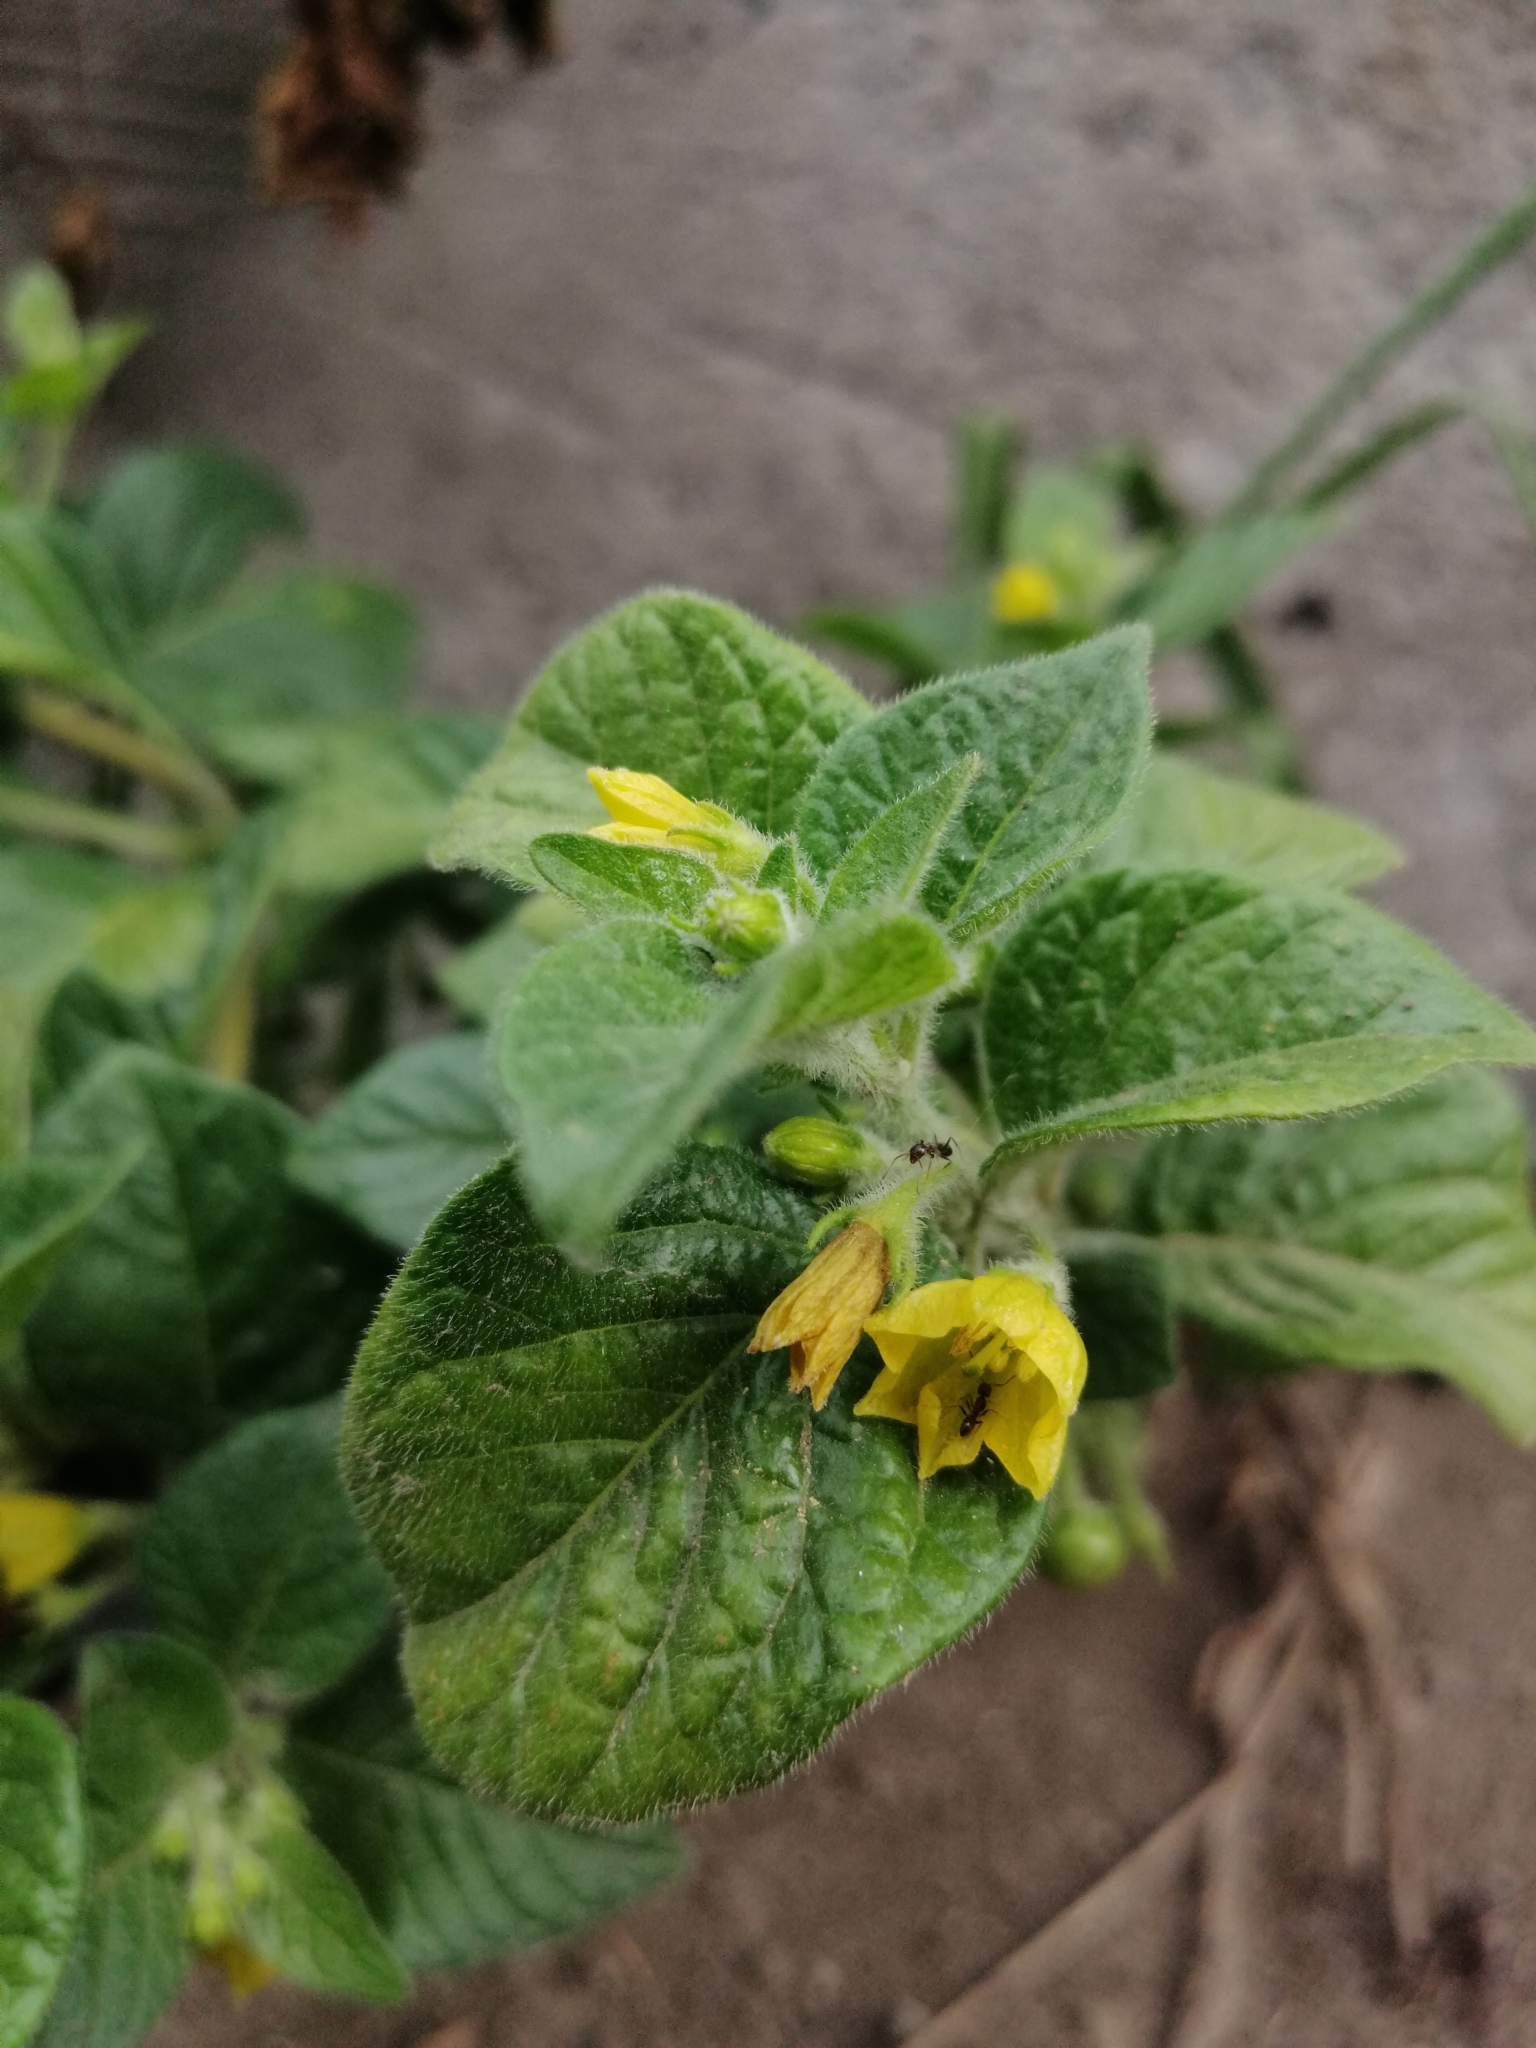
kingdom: Plantae
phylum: Tracheophyta
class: Magnoliopsida
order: Solanales
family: Solanaceae
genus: Capsicum
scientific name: Capsicum rhomboideum
